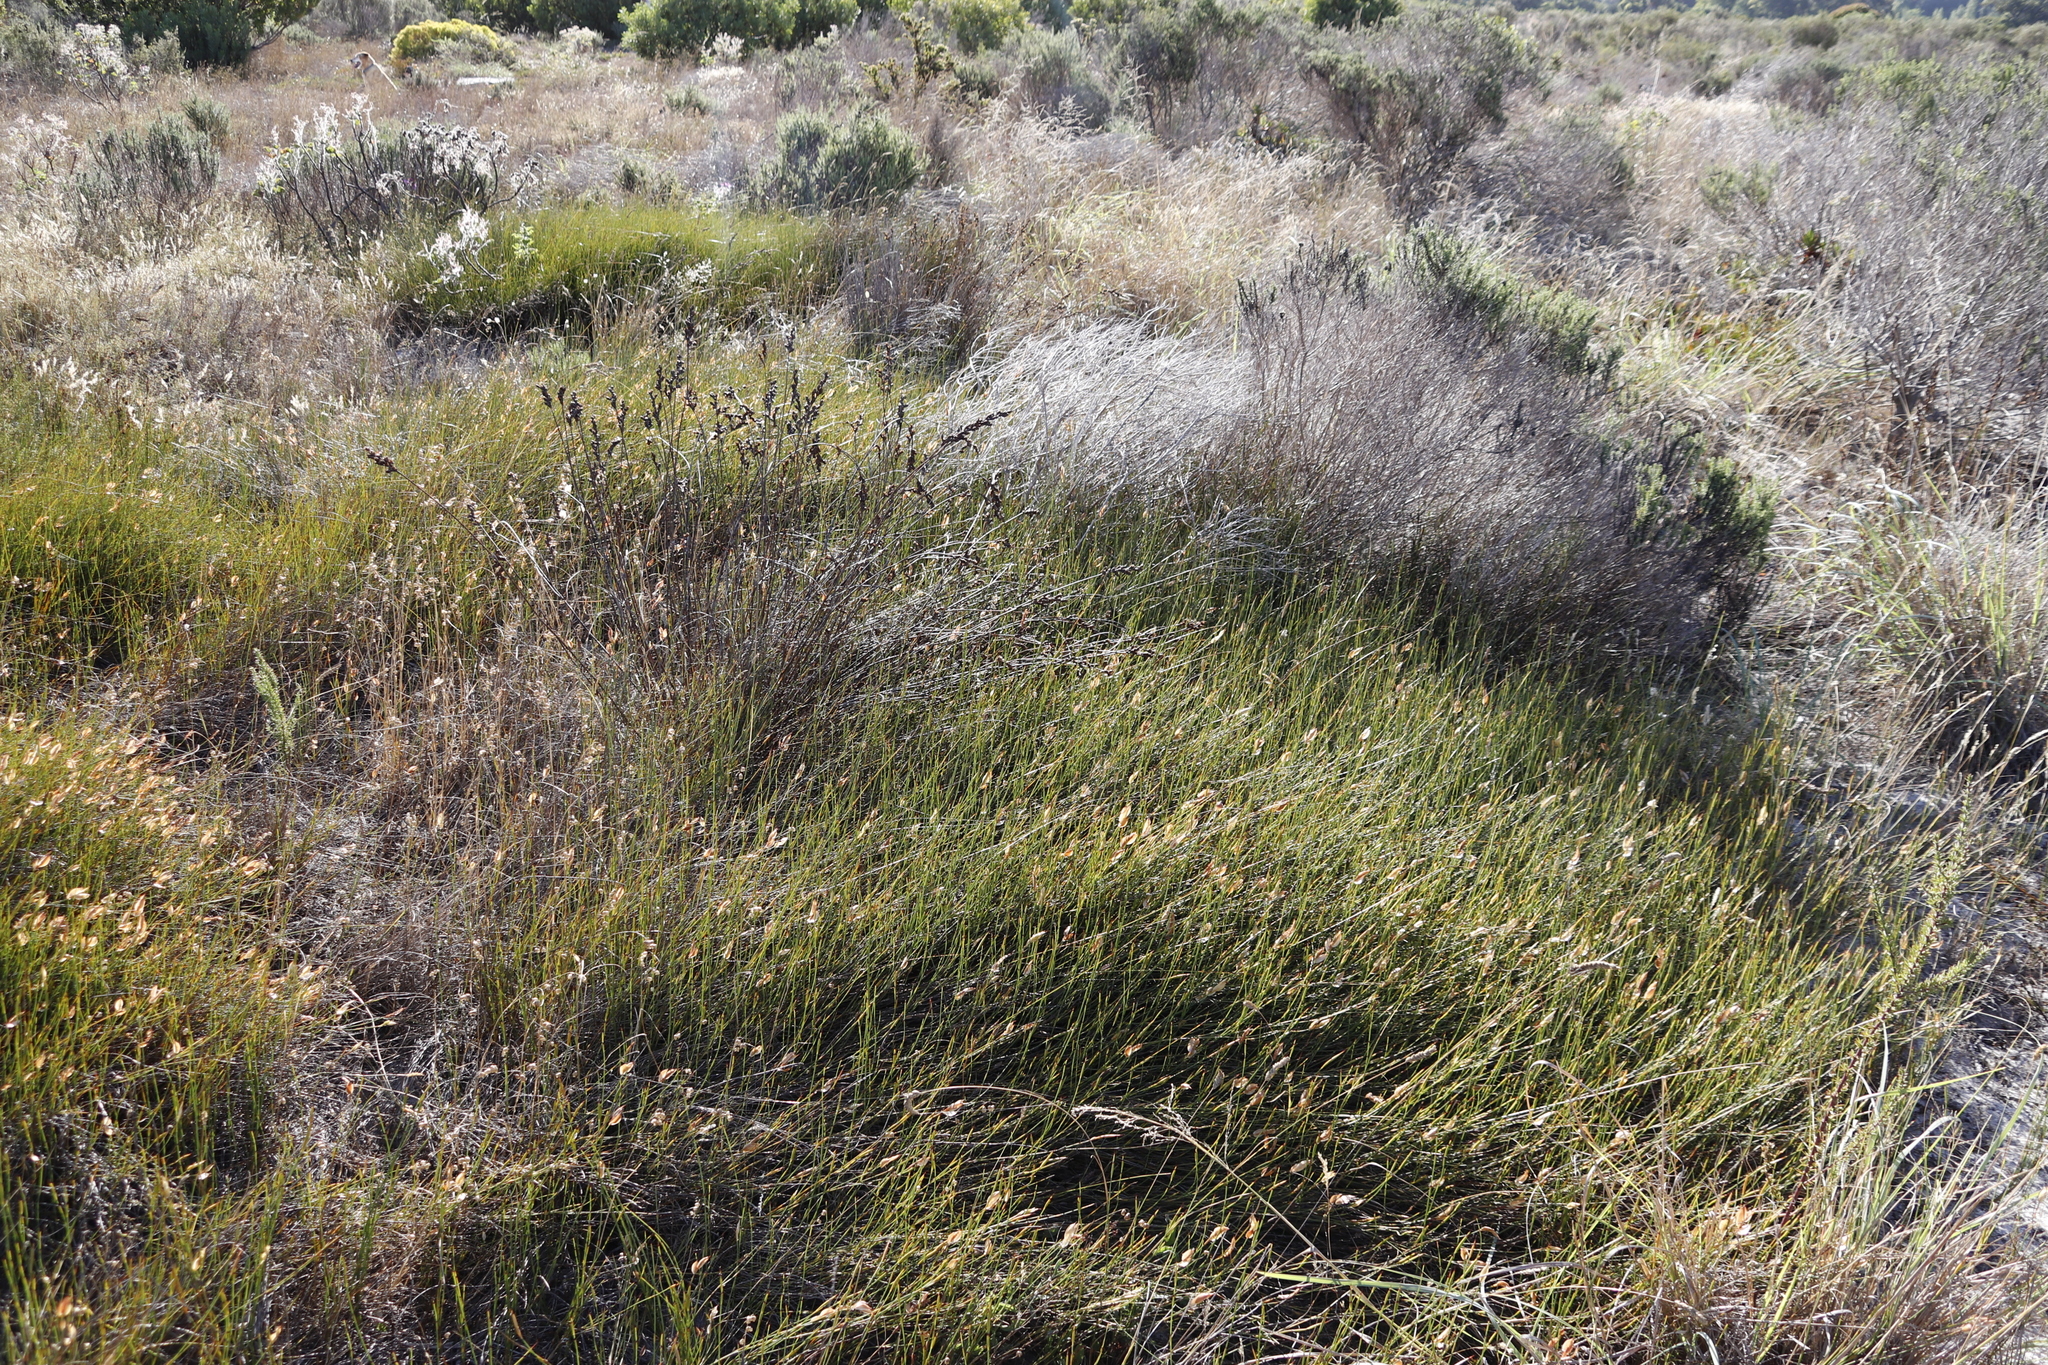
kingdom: Plantae
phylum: Tracheophyta
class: Liliopsida
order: Poales
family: Restionaceae
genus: Willdenowia
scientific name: Willdenowia sulcata
